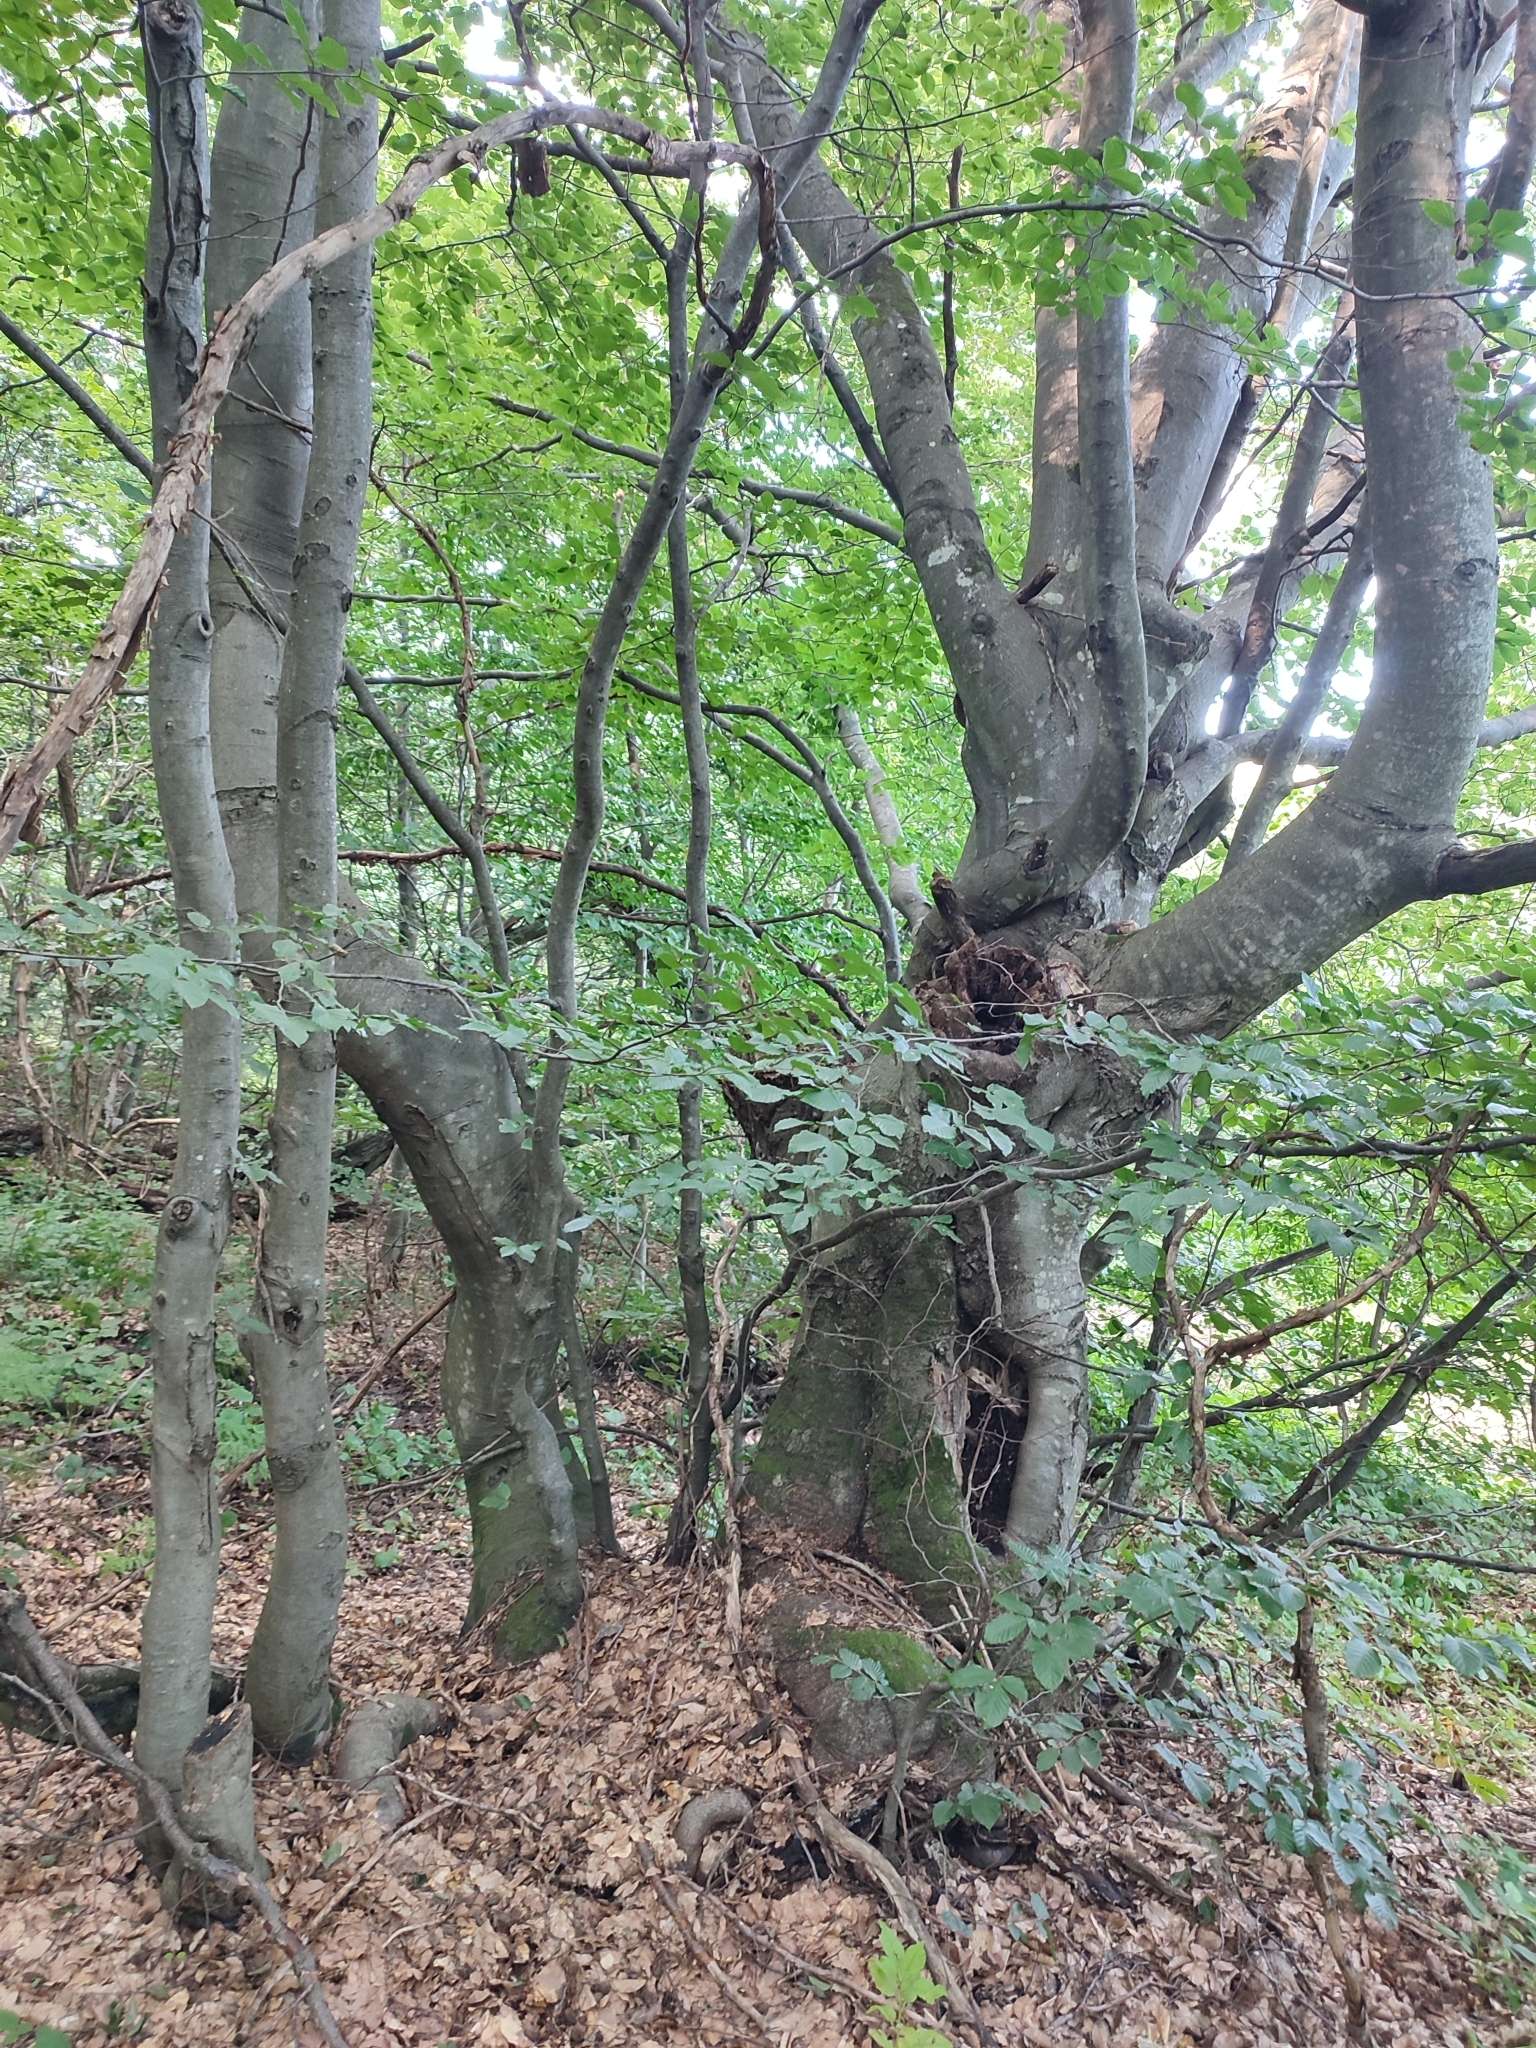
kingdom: Plantae
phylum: Tracheophyta
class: Magnoliopsida
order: Fagales
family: Fagaceae
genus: Fagus
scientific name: Fagus sylvatica
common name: Beech
